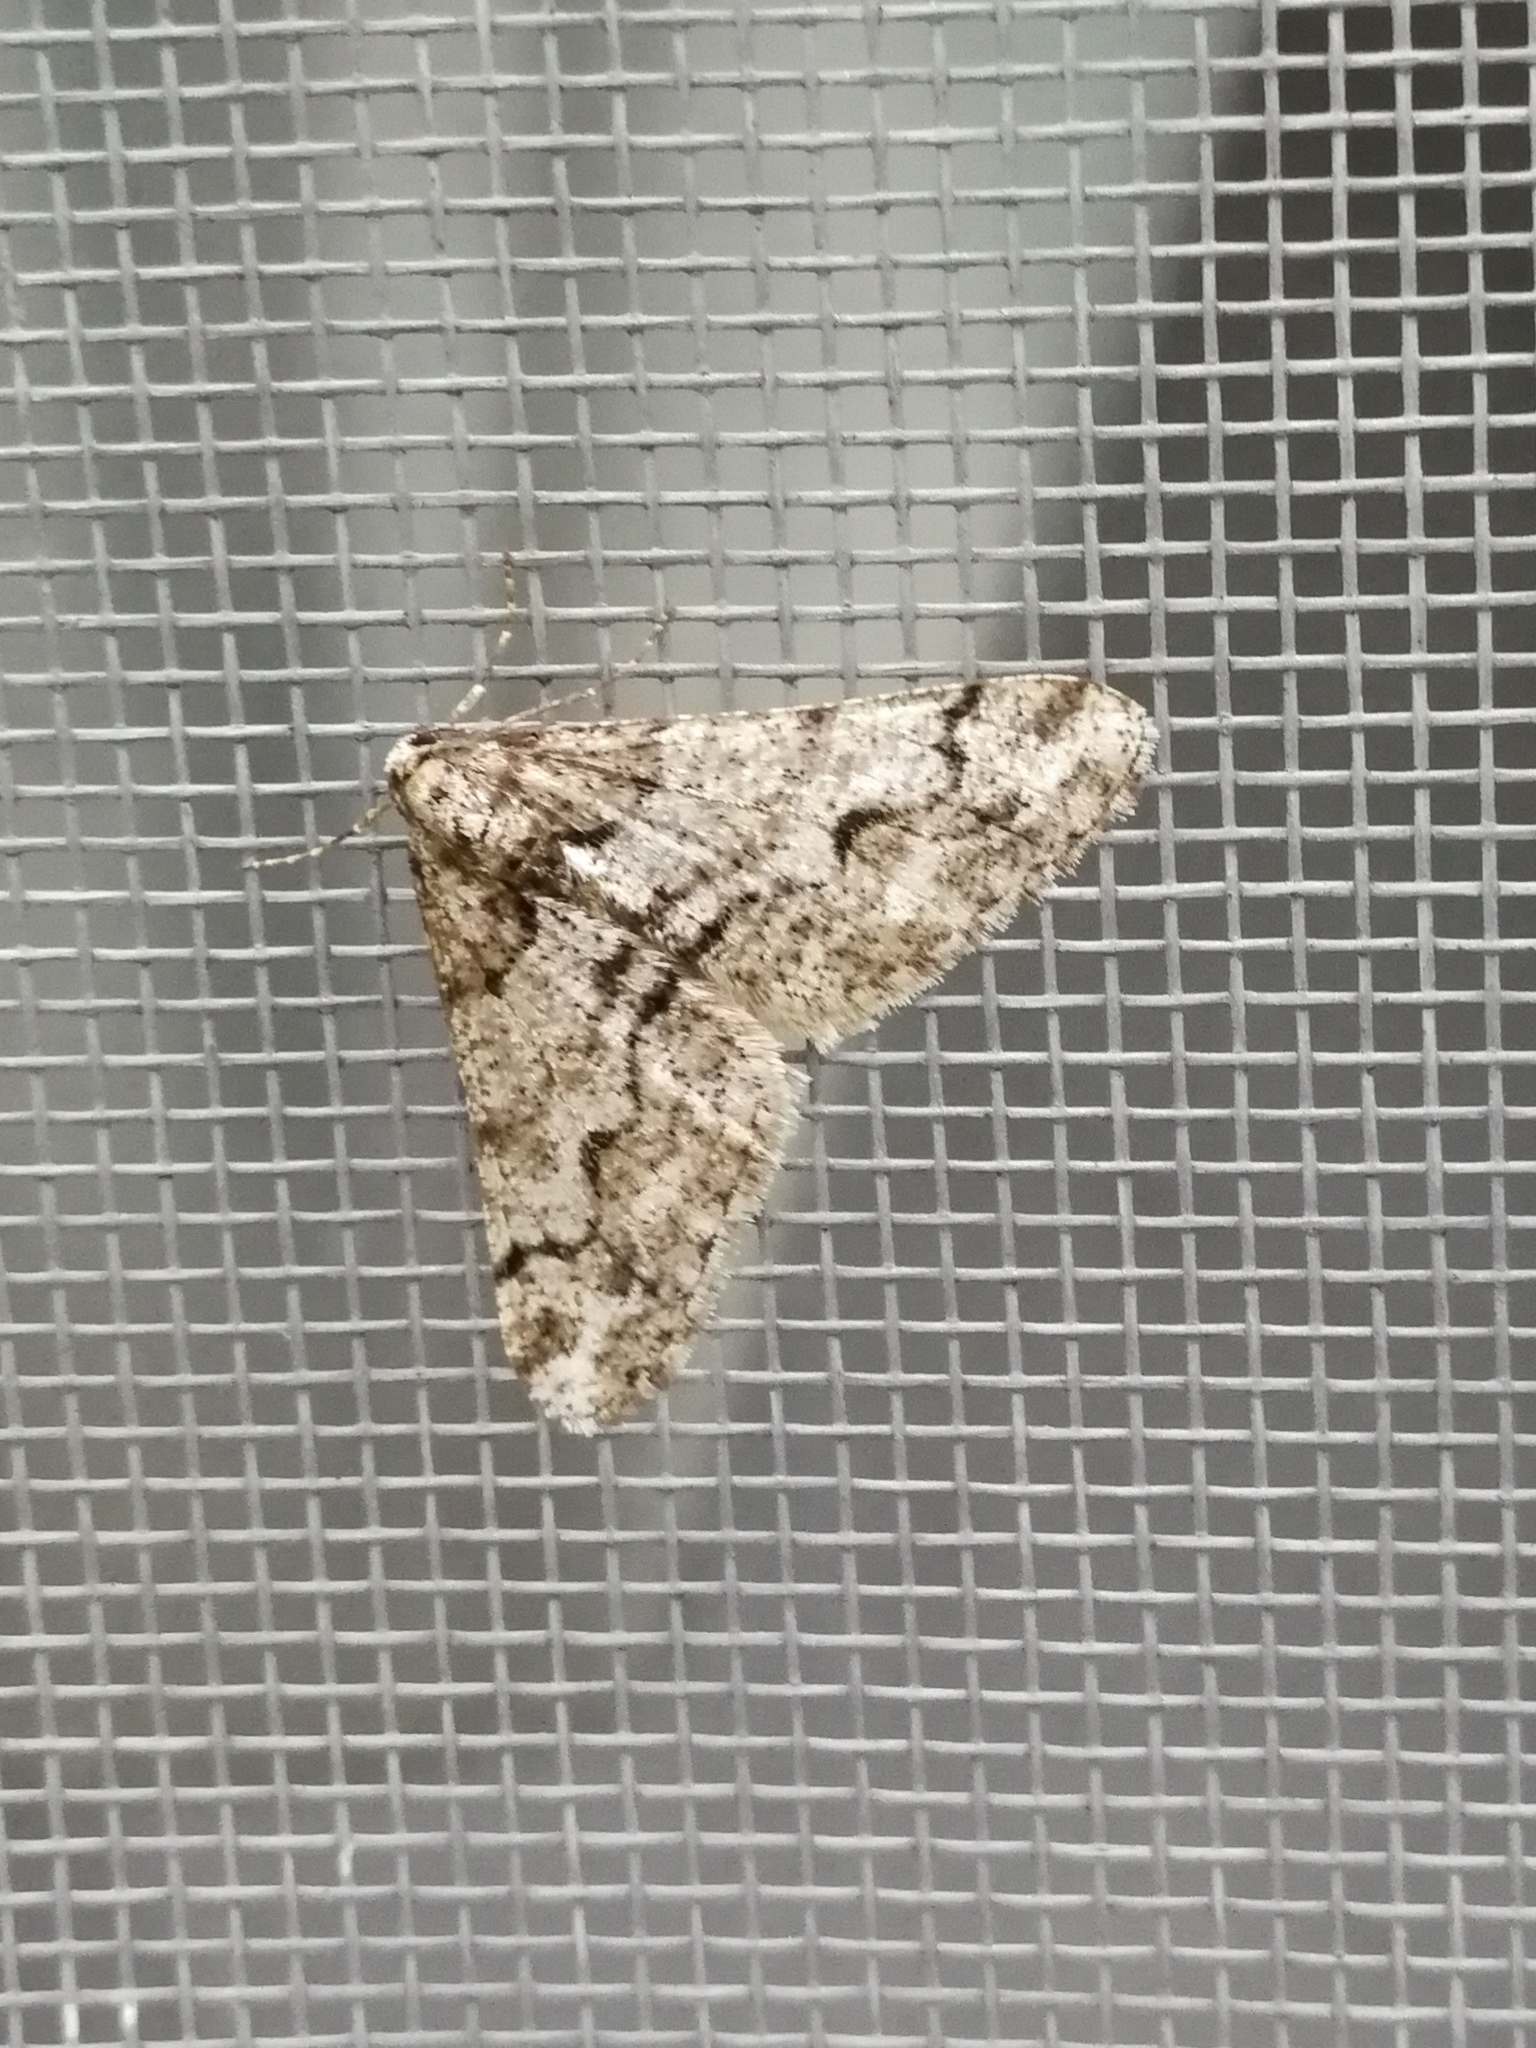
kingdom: Animalia
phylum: Arthropoda
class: Insecta
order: Lepidoptera
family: Geometridae
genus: Agriopis
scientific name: Agriopis leucophaearia
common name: Spring usher
